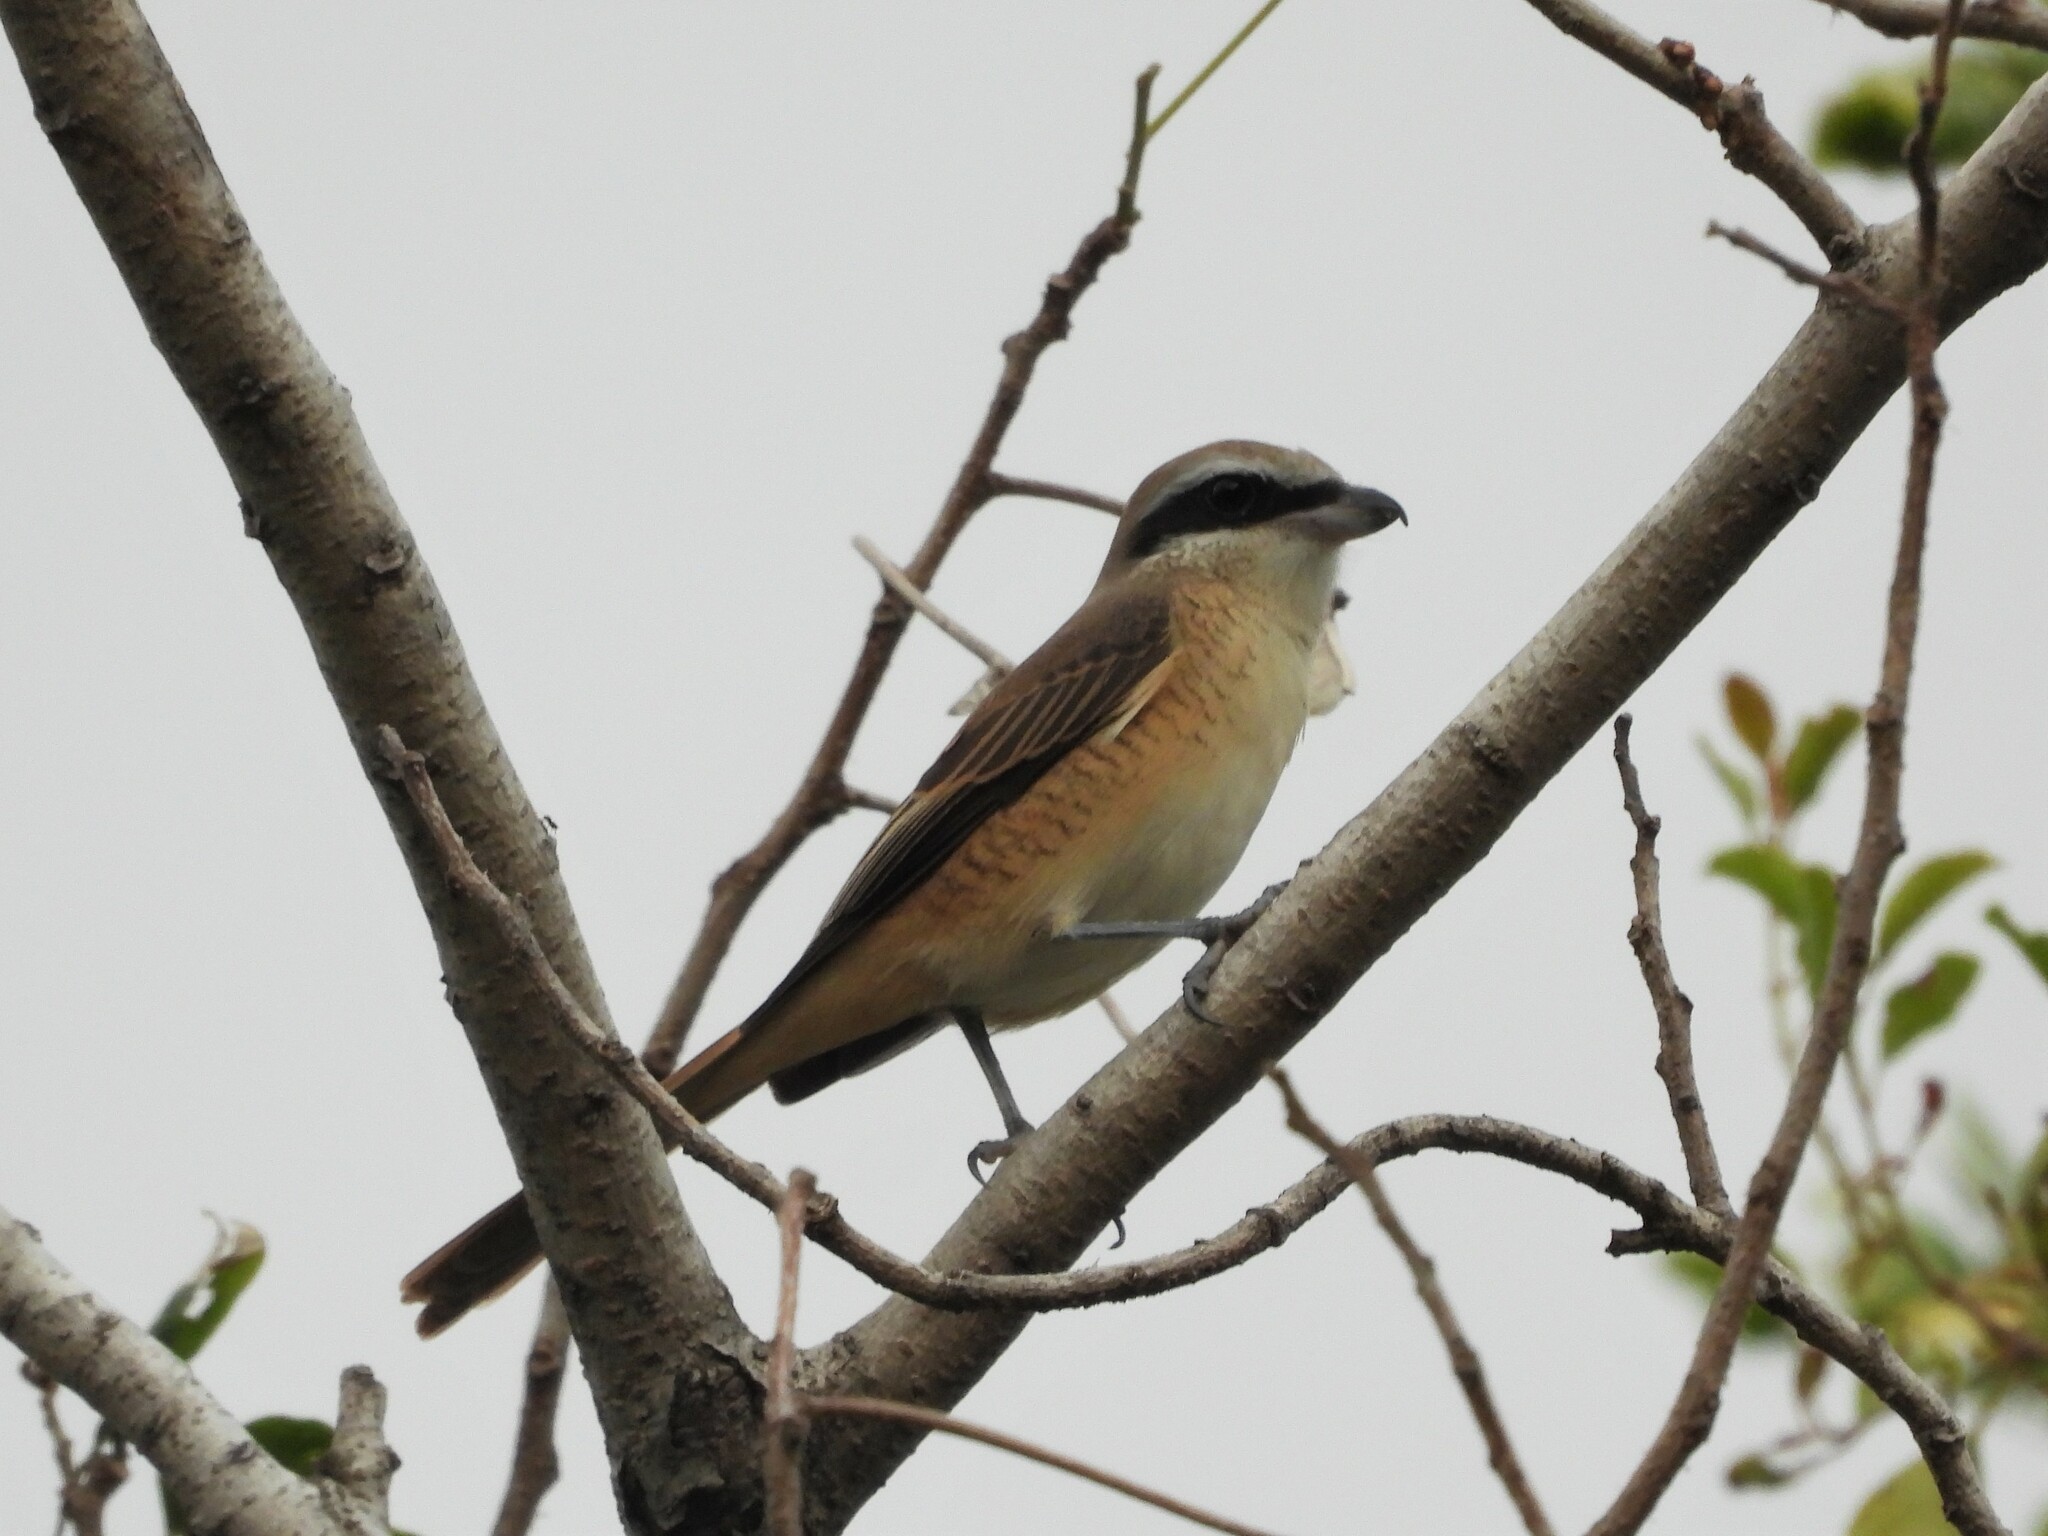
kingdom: Animalia
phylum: Chordata
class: Aves
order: Passeriformes
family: Laniidae
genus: Lanius
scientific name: Lanius cristatus
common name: Brown shrike
